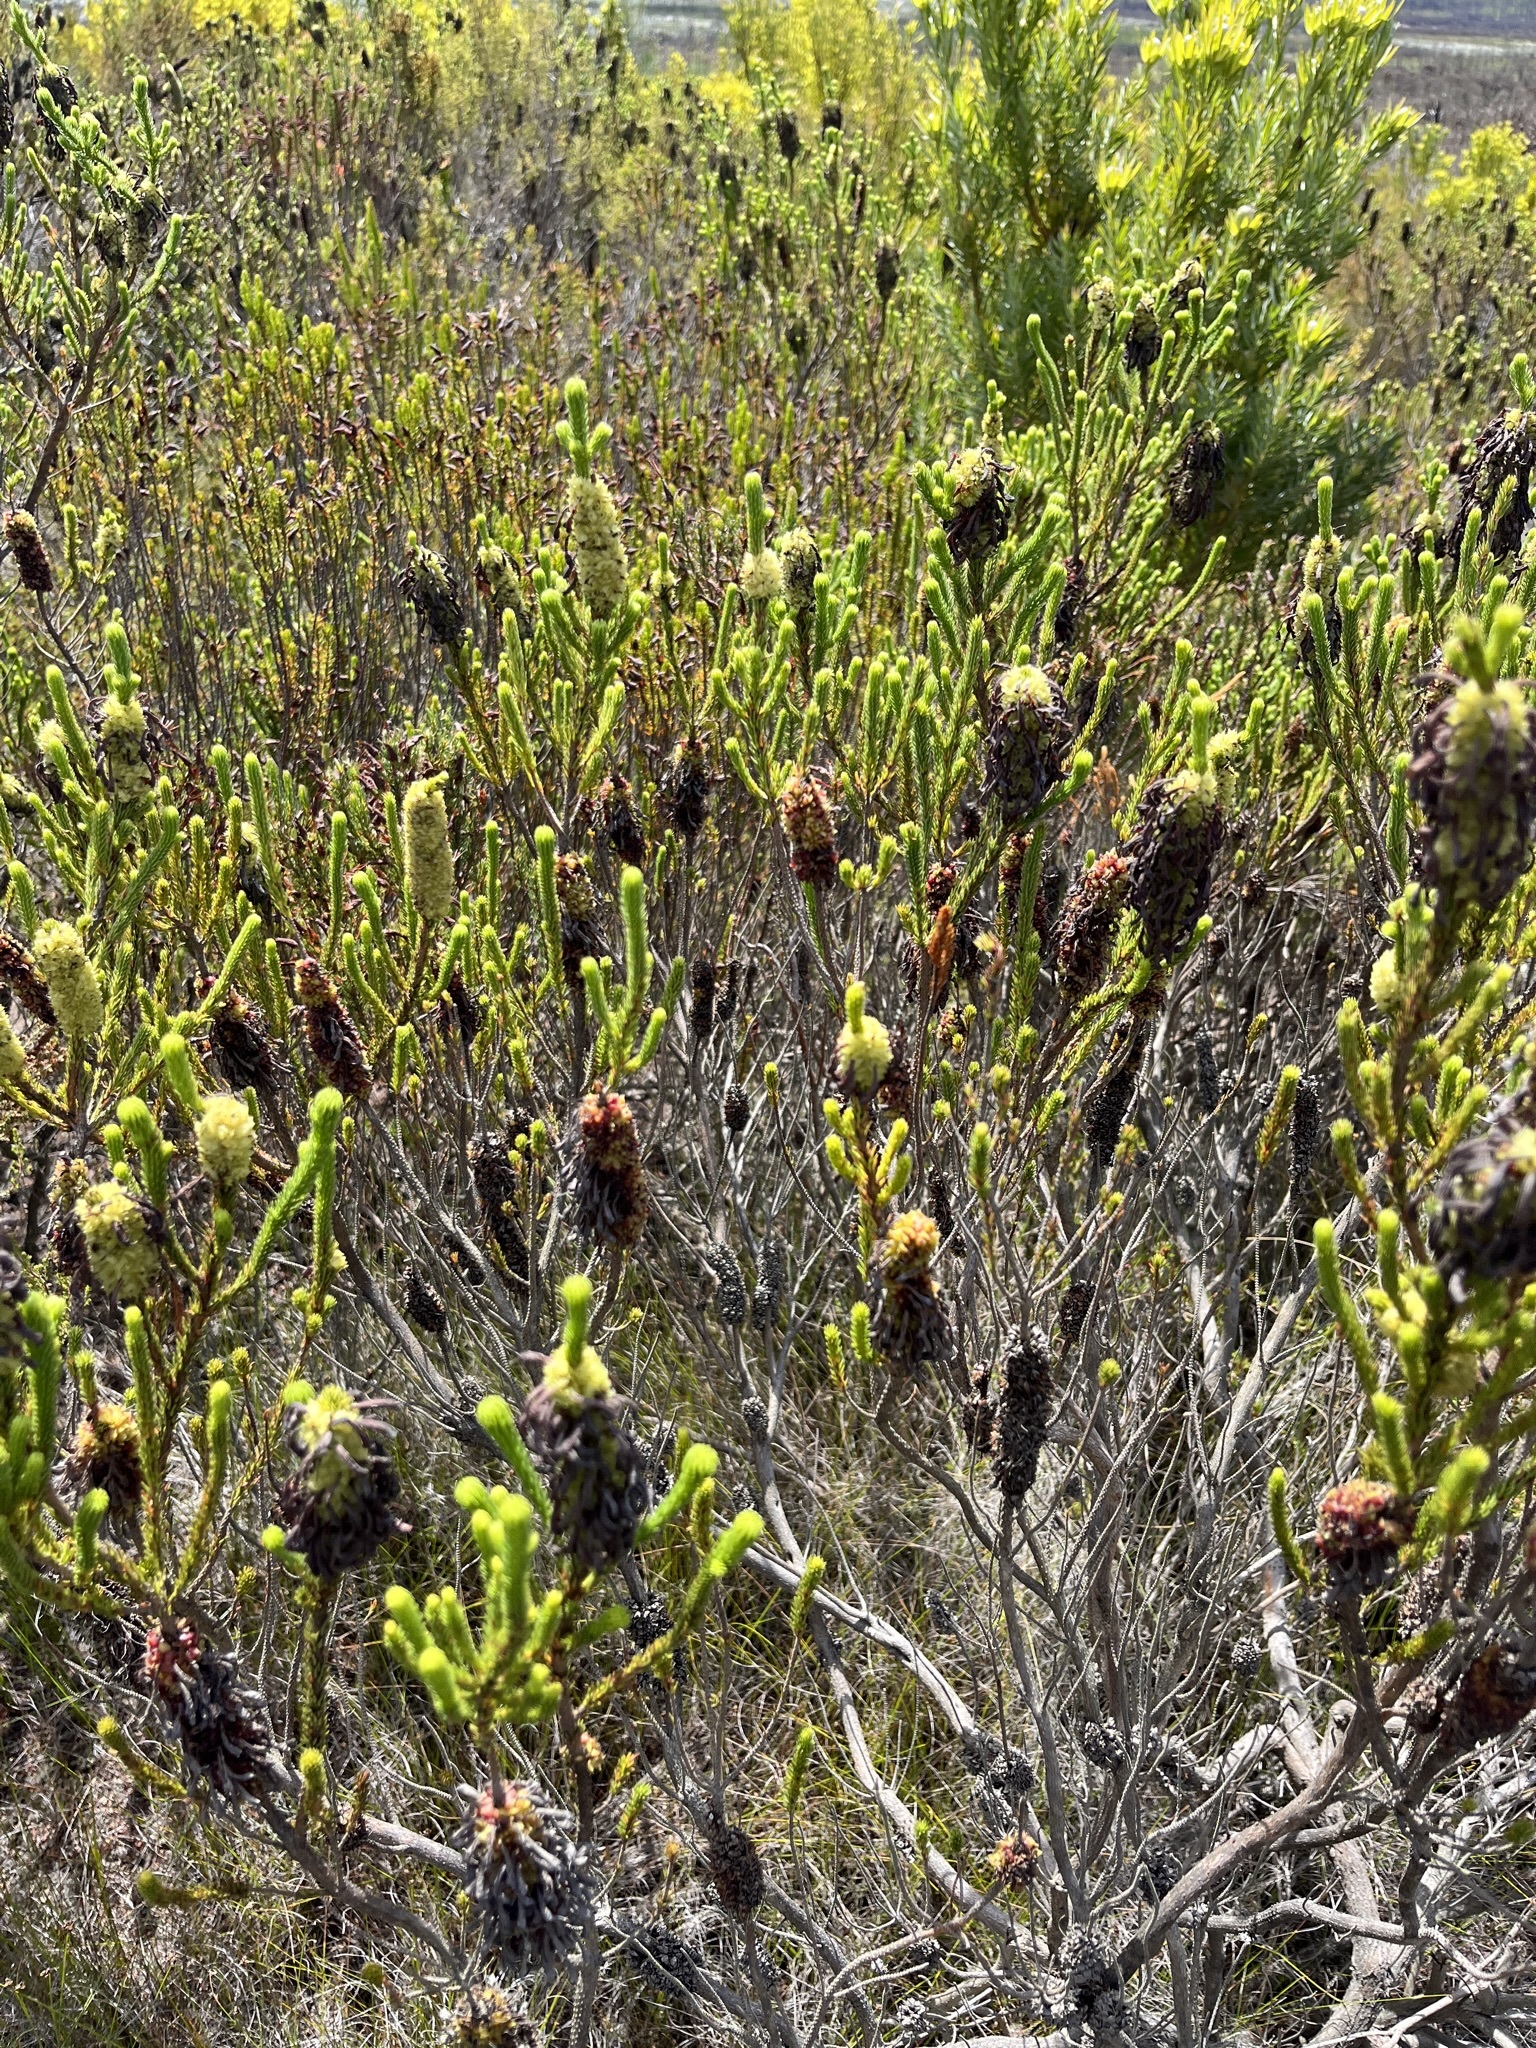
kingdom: Plantae
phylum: Tracheophyta
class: Magnoliopsida
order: Ericales
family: Ericaceae
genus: Erica
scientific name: Erica sessiliflora
